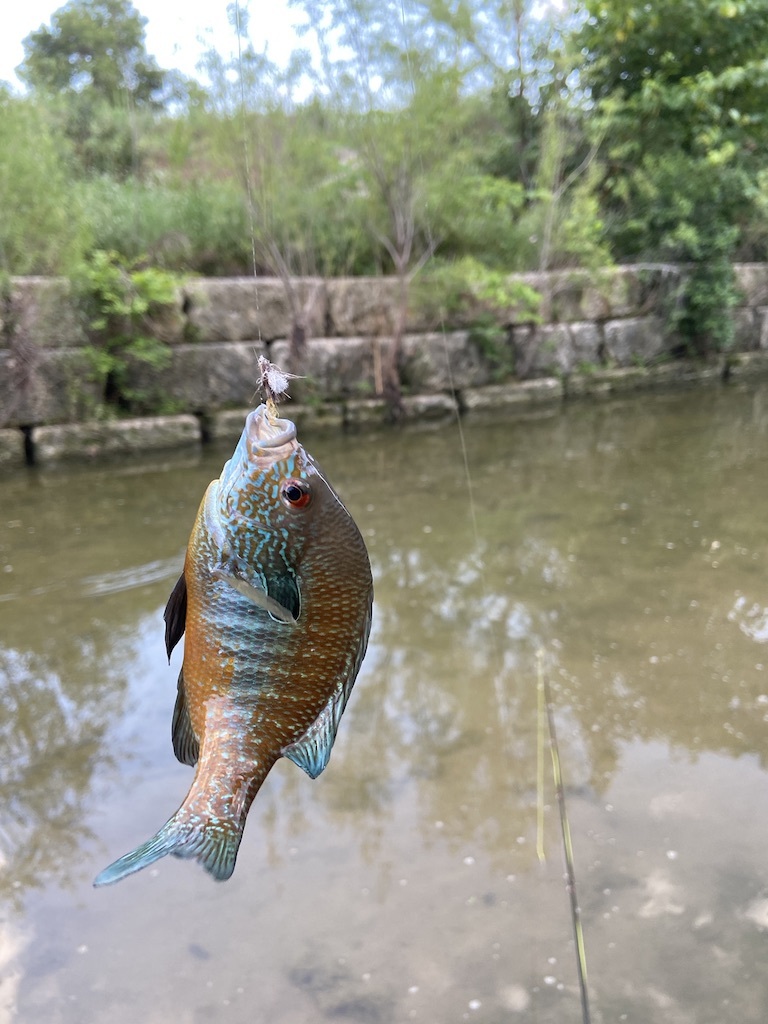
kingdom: Animalia
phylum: Chordata
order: Perciformes
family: Centrarchidae
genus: Lepomis
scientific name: Lepomis megalotis
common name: Longear sunfish
